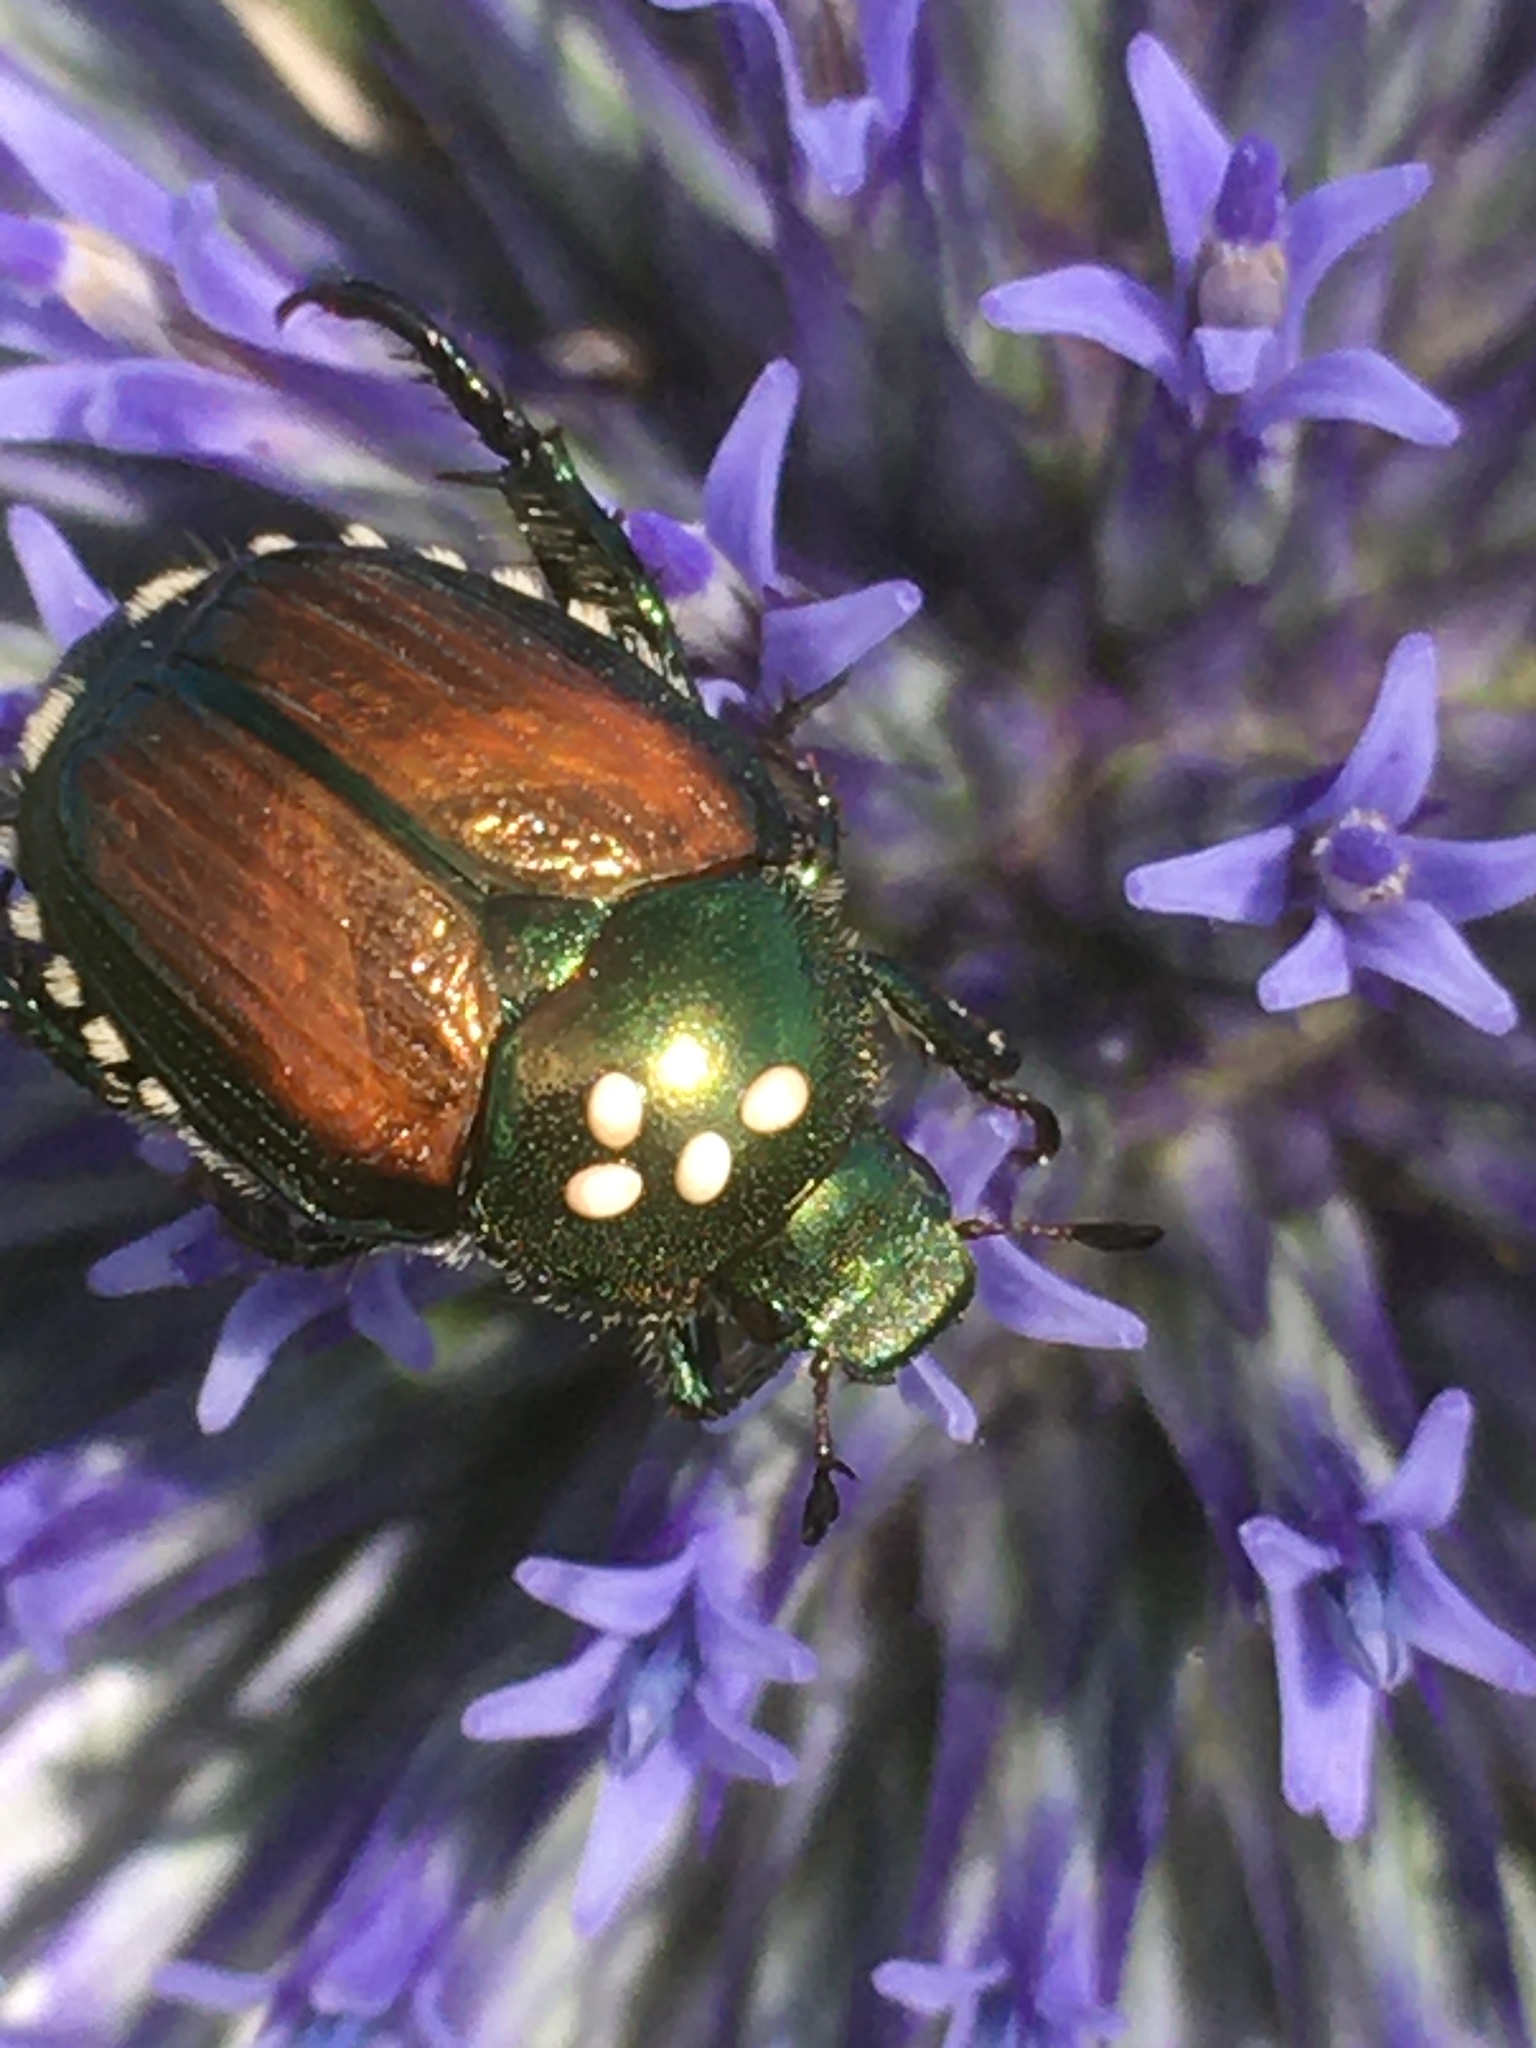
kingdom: Animalia
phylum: Arthropoda
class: Insecta
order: Diptera
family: Tachinidae
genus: Istocheta
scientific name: Istocheta aldrichi
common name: Parasitic wasp
